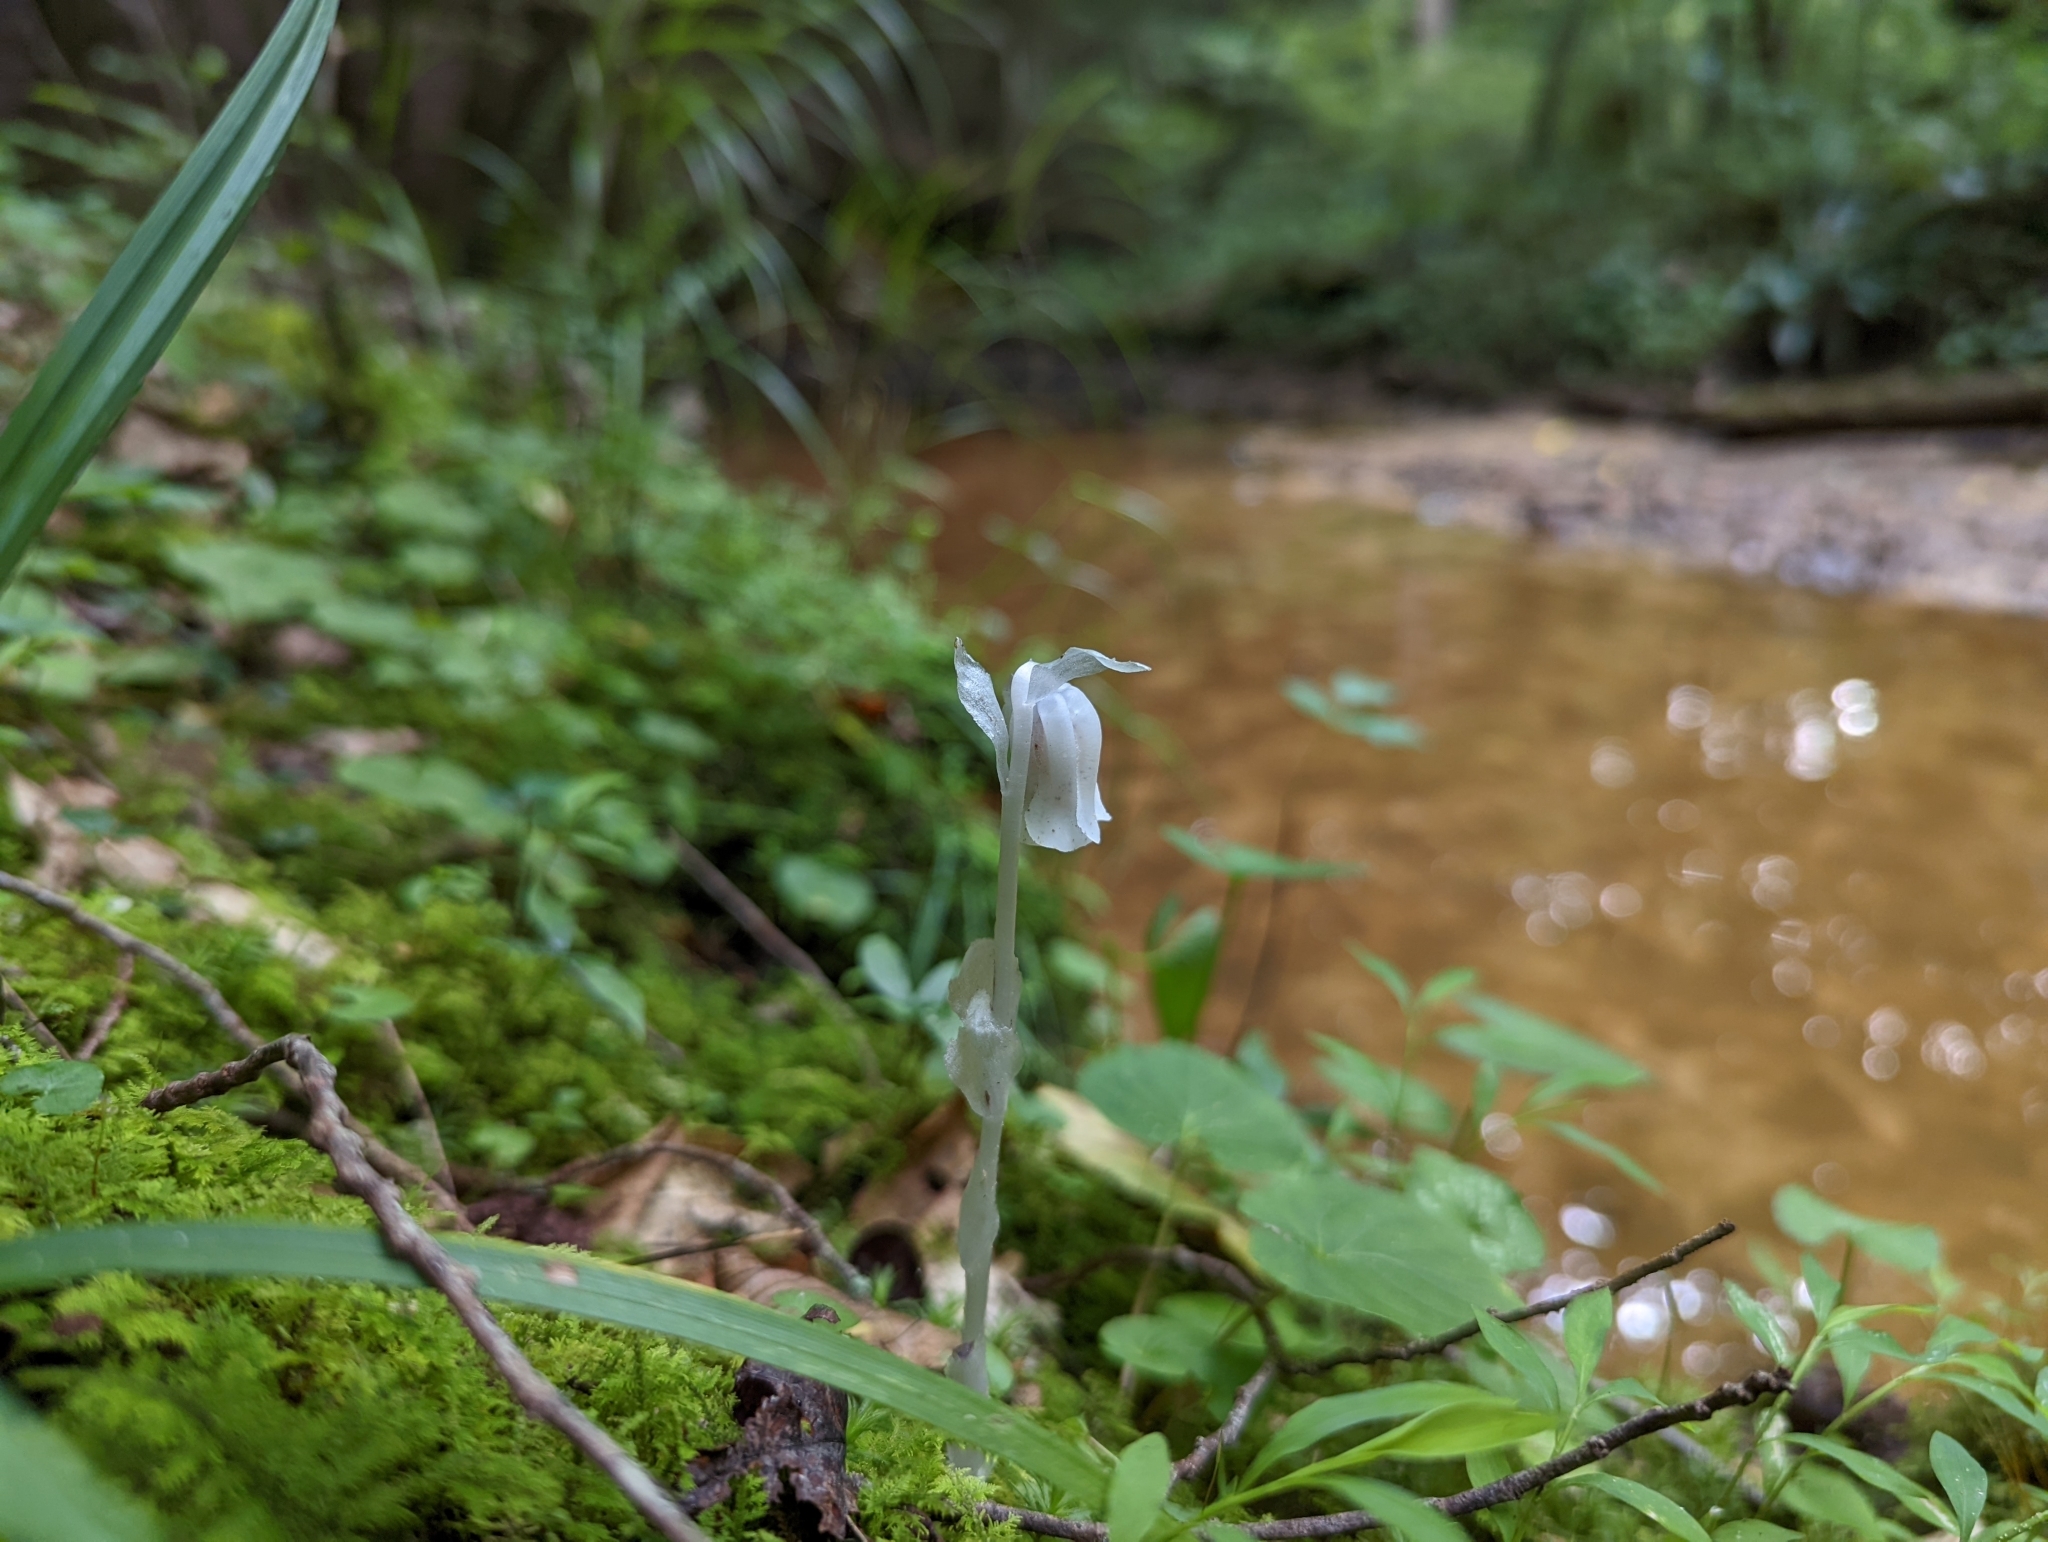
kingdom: Plantae
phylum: Tracheophyta
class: Magnoliopsida
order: Ericales
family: Ericaceae
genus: Monotropa
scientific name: Monotropa uniflora
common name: Convulsion root
